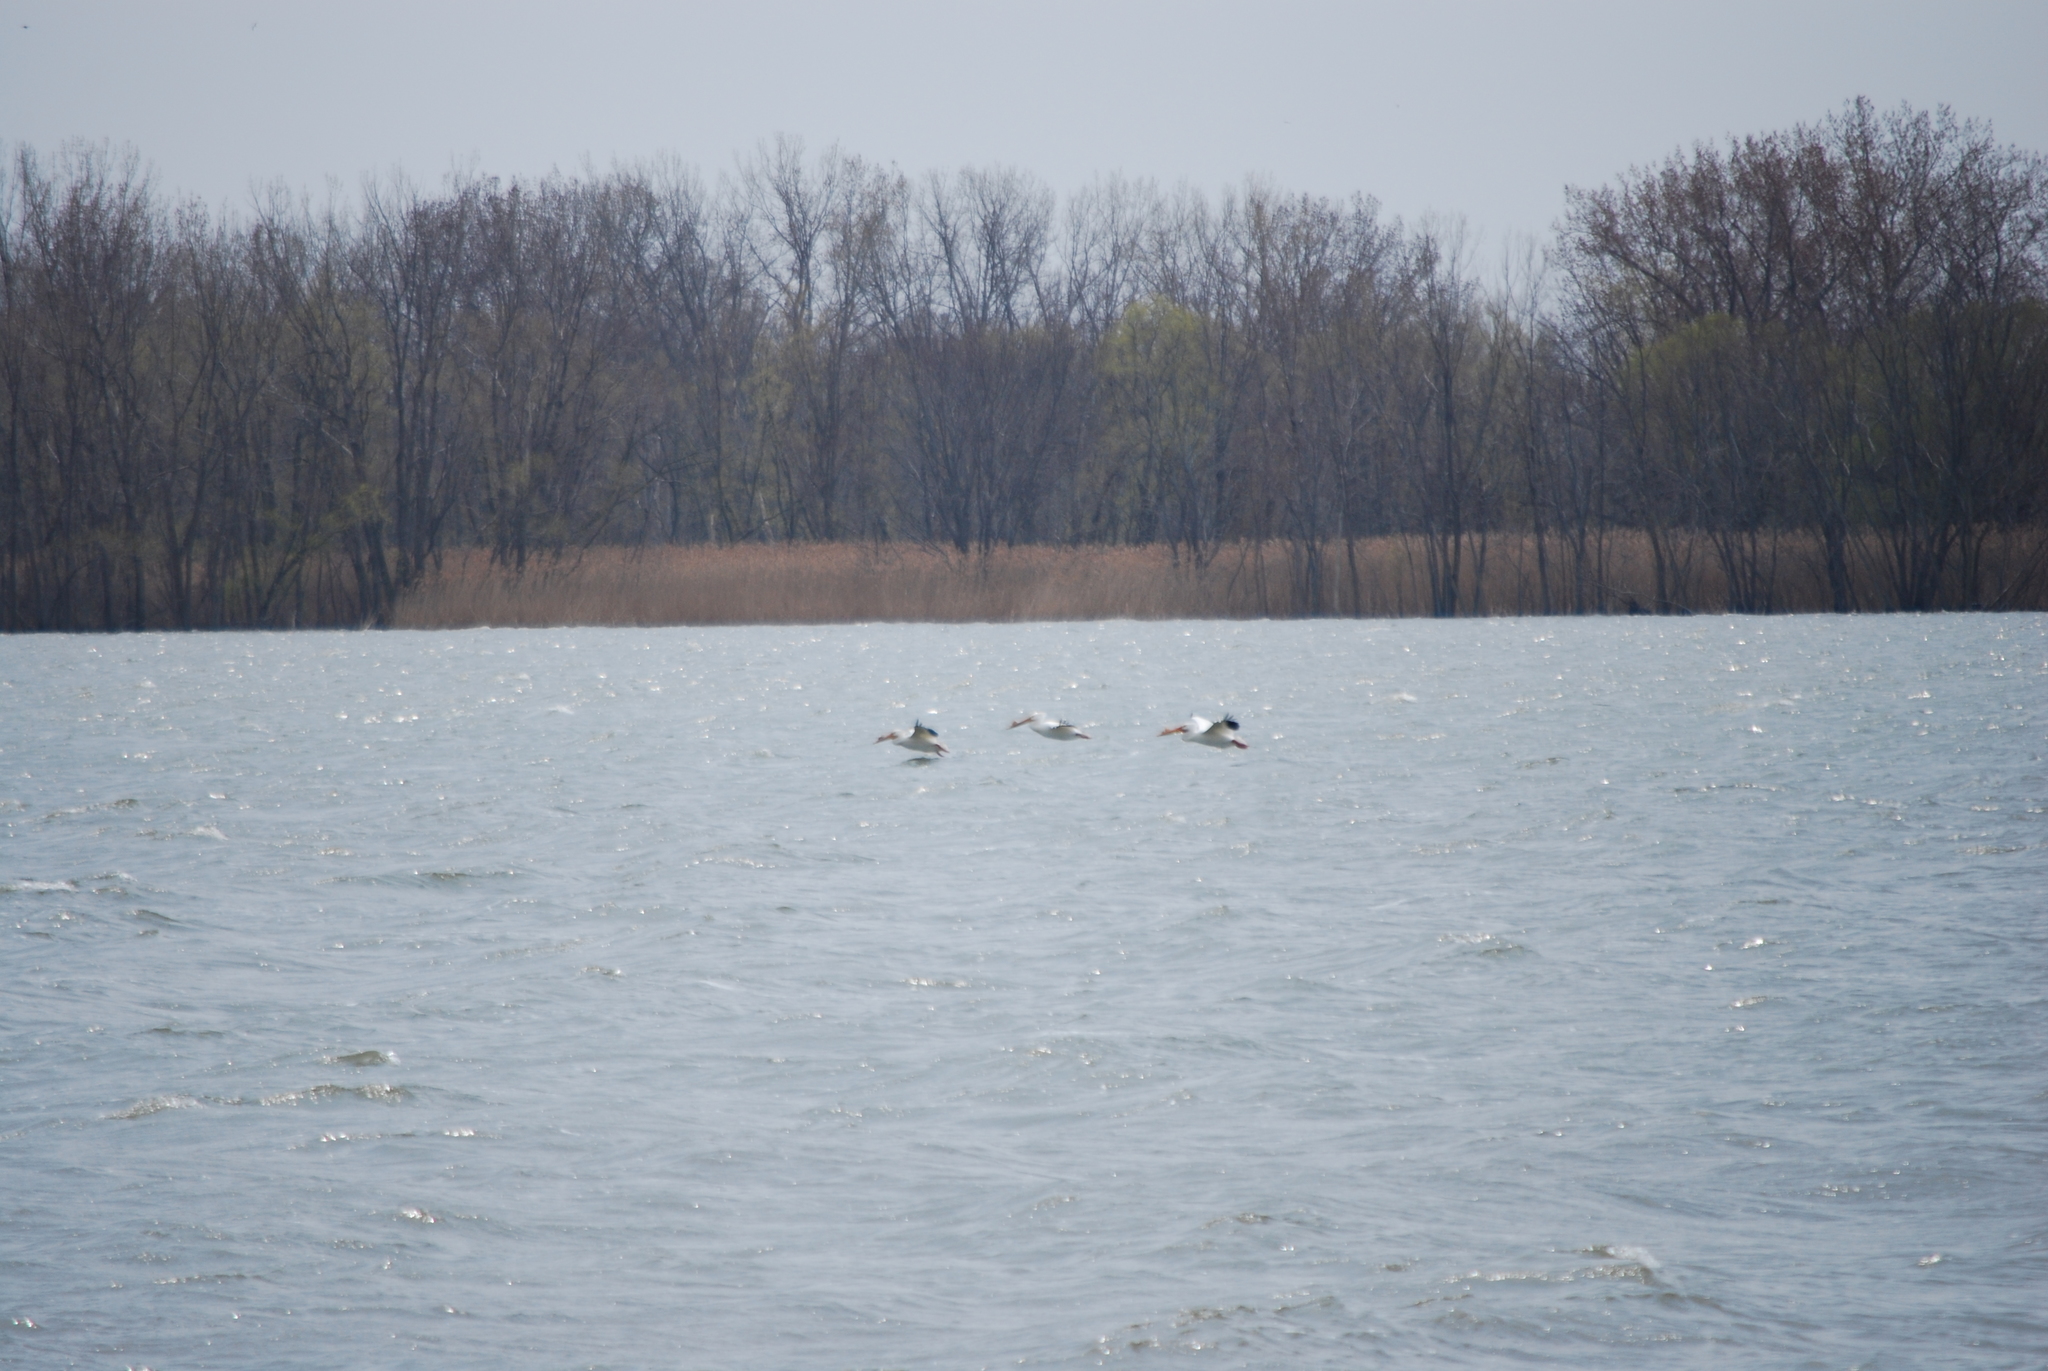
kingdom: Animalia
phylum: Chordata
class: Aves
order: Pelecaniformes
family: Pelecanidae
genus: Pelecanus
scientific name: Pelecanus erythrorhynchos
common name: American white pelican
